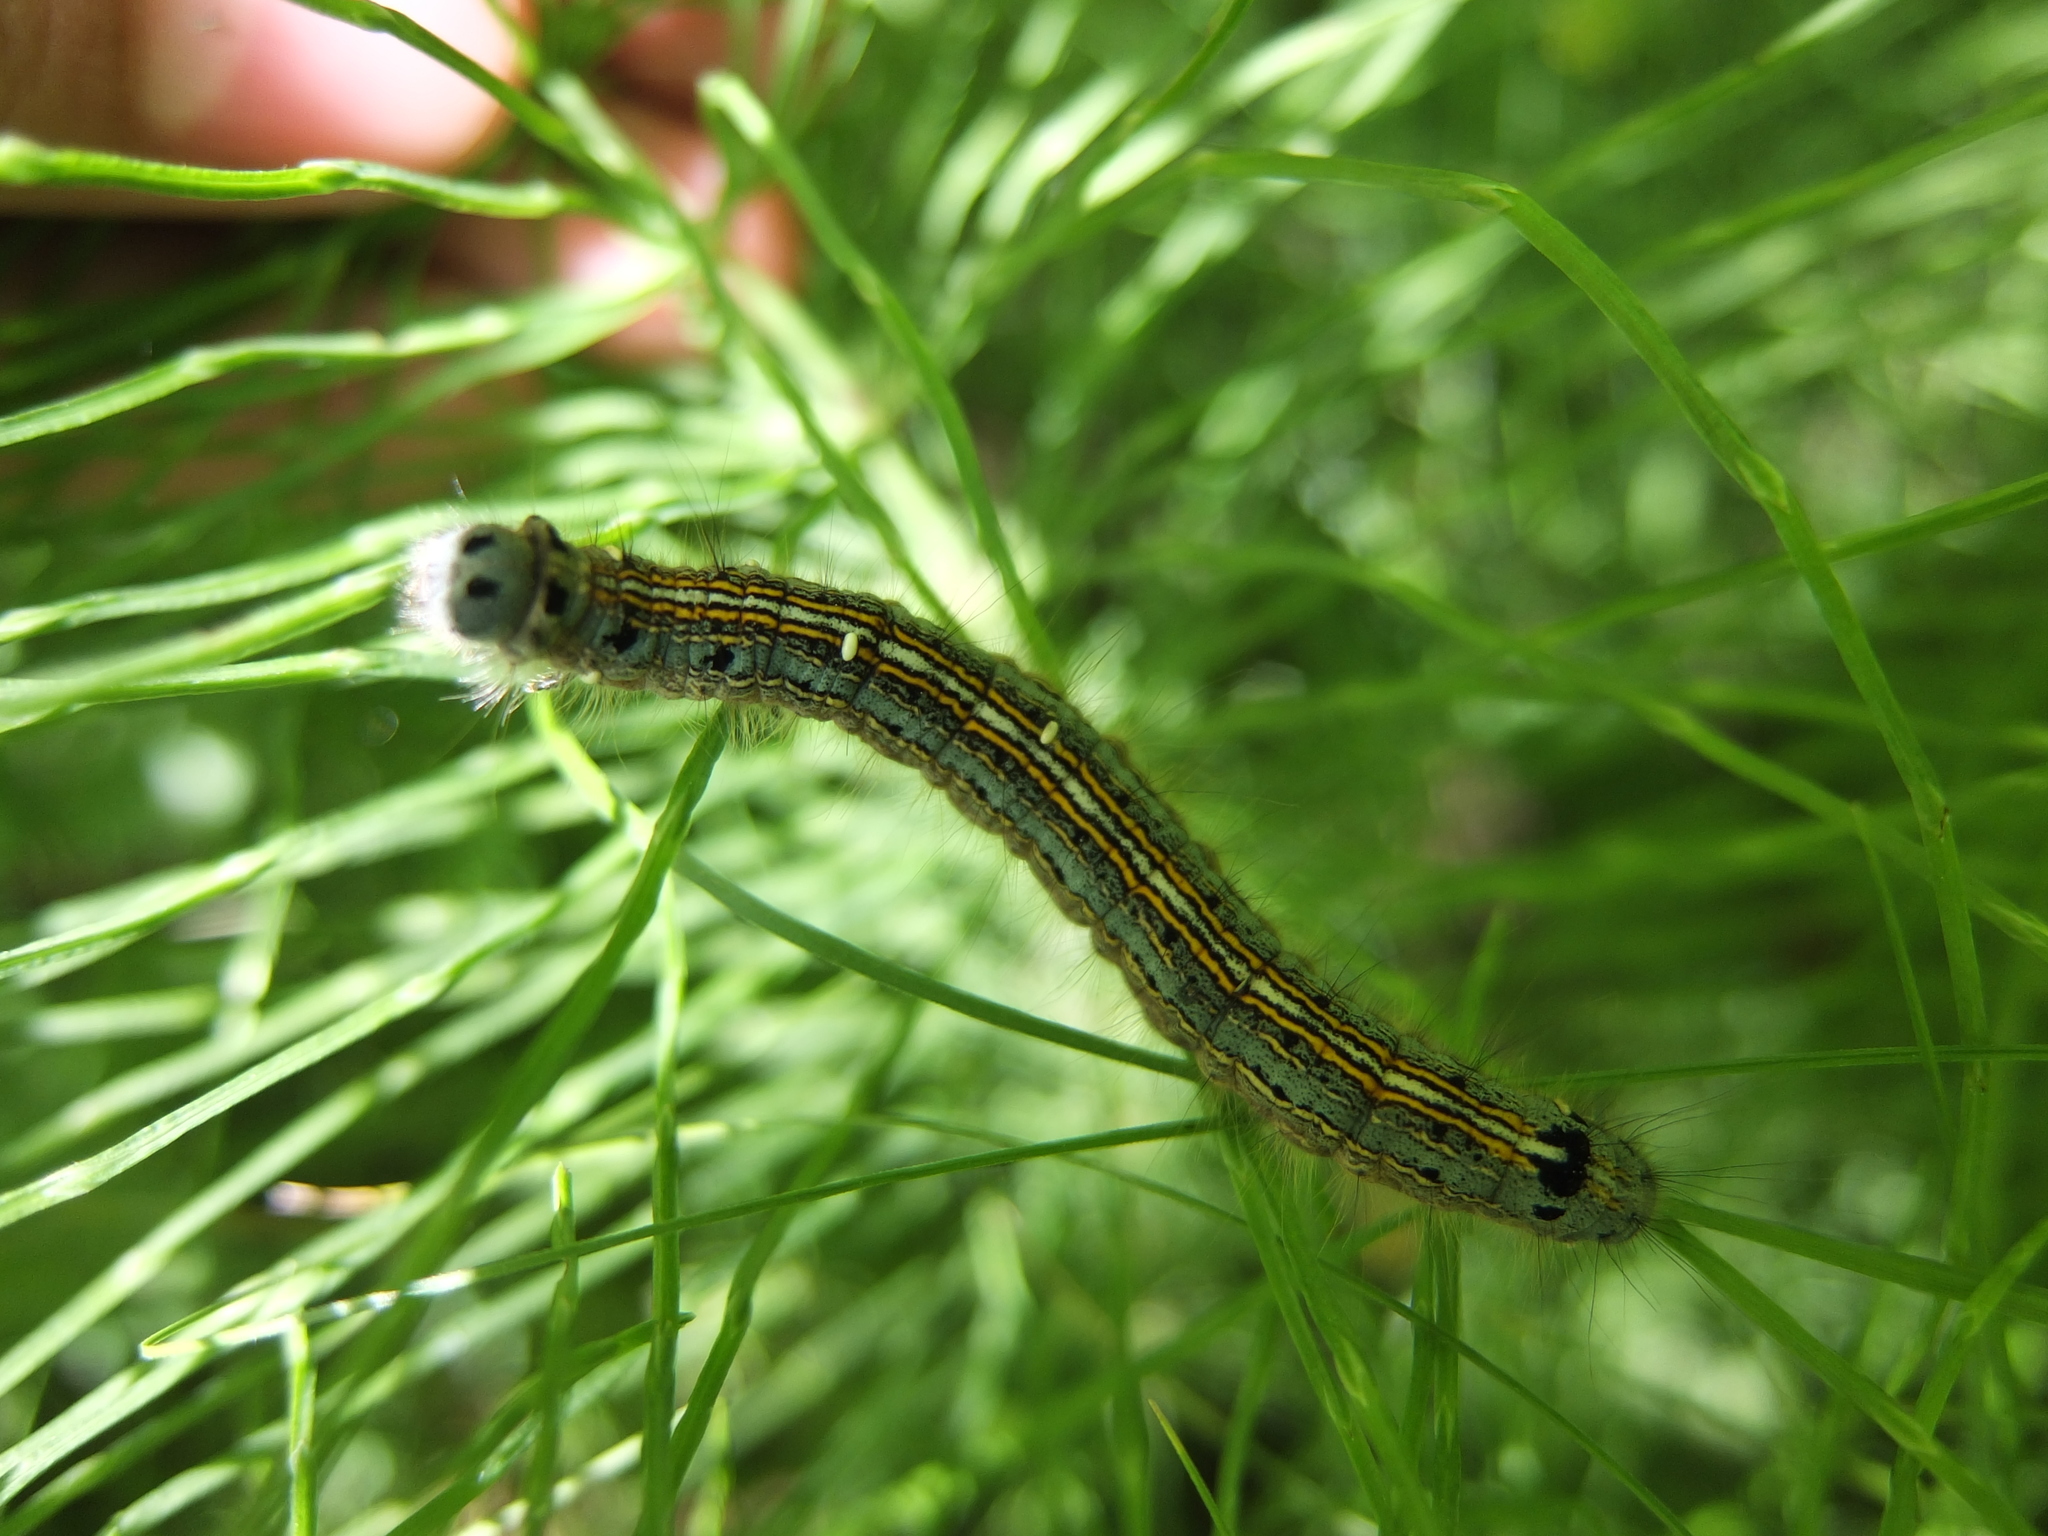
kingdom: Animalia
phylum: Arthropoda
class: Insecta
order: Lepidoptera
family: Lasiocampidae
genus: Malacosoma
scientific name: Malacosoma neustria
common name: The lackey
